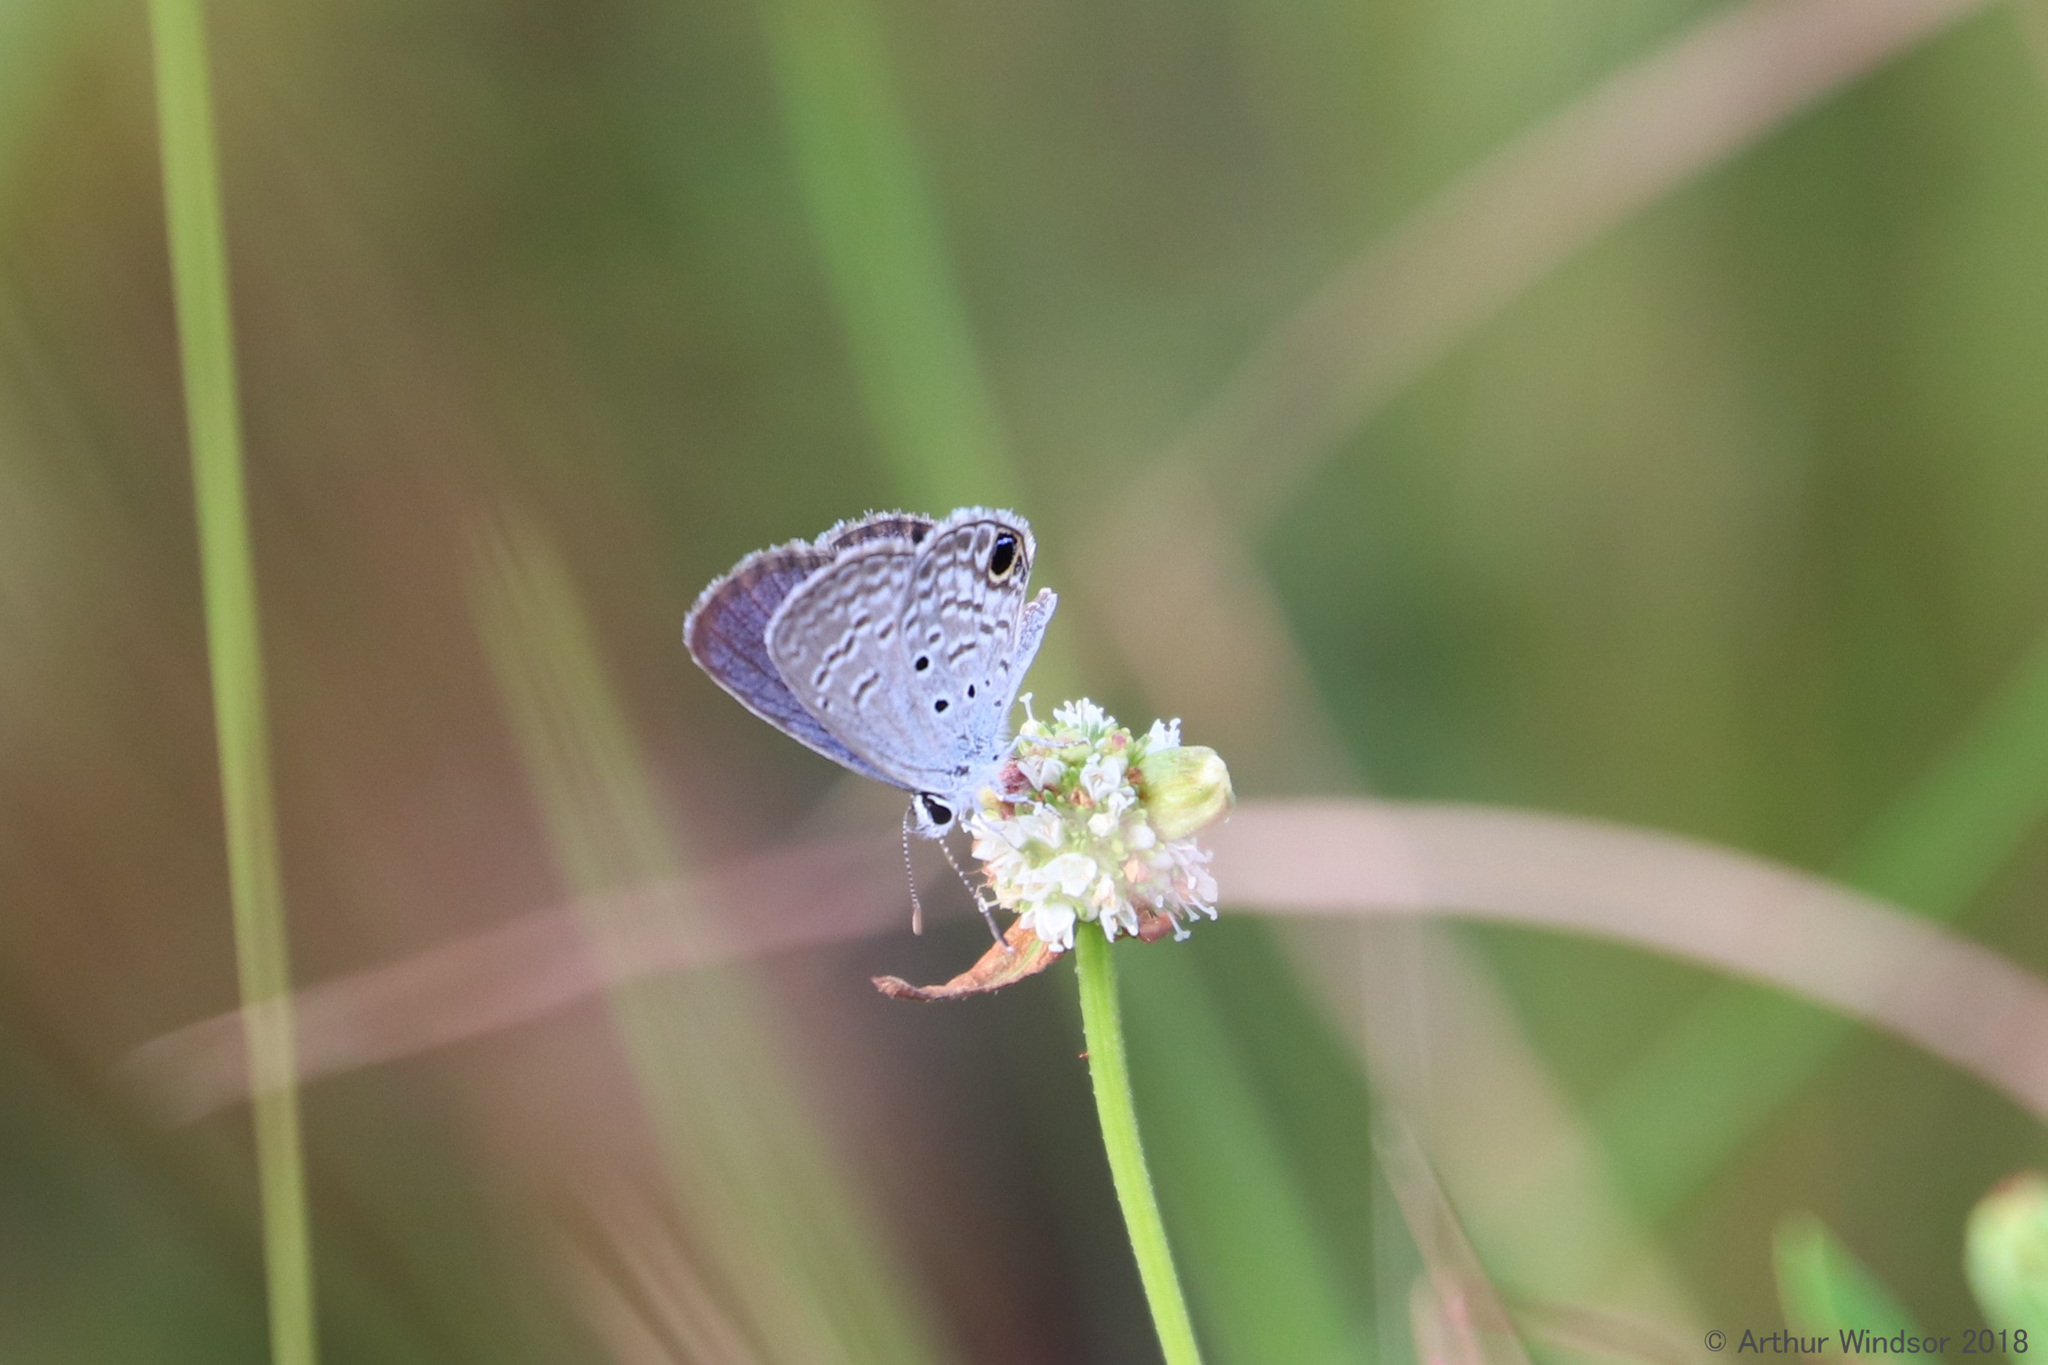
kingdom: Animalia
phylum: Arthropoda
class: Insecta
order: Lepidoptera
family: Lycaenidae
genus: Hemiargus
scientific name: Hemiargus ceraunus
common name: Ceraunus blue
